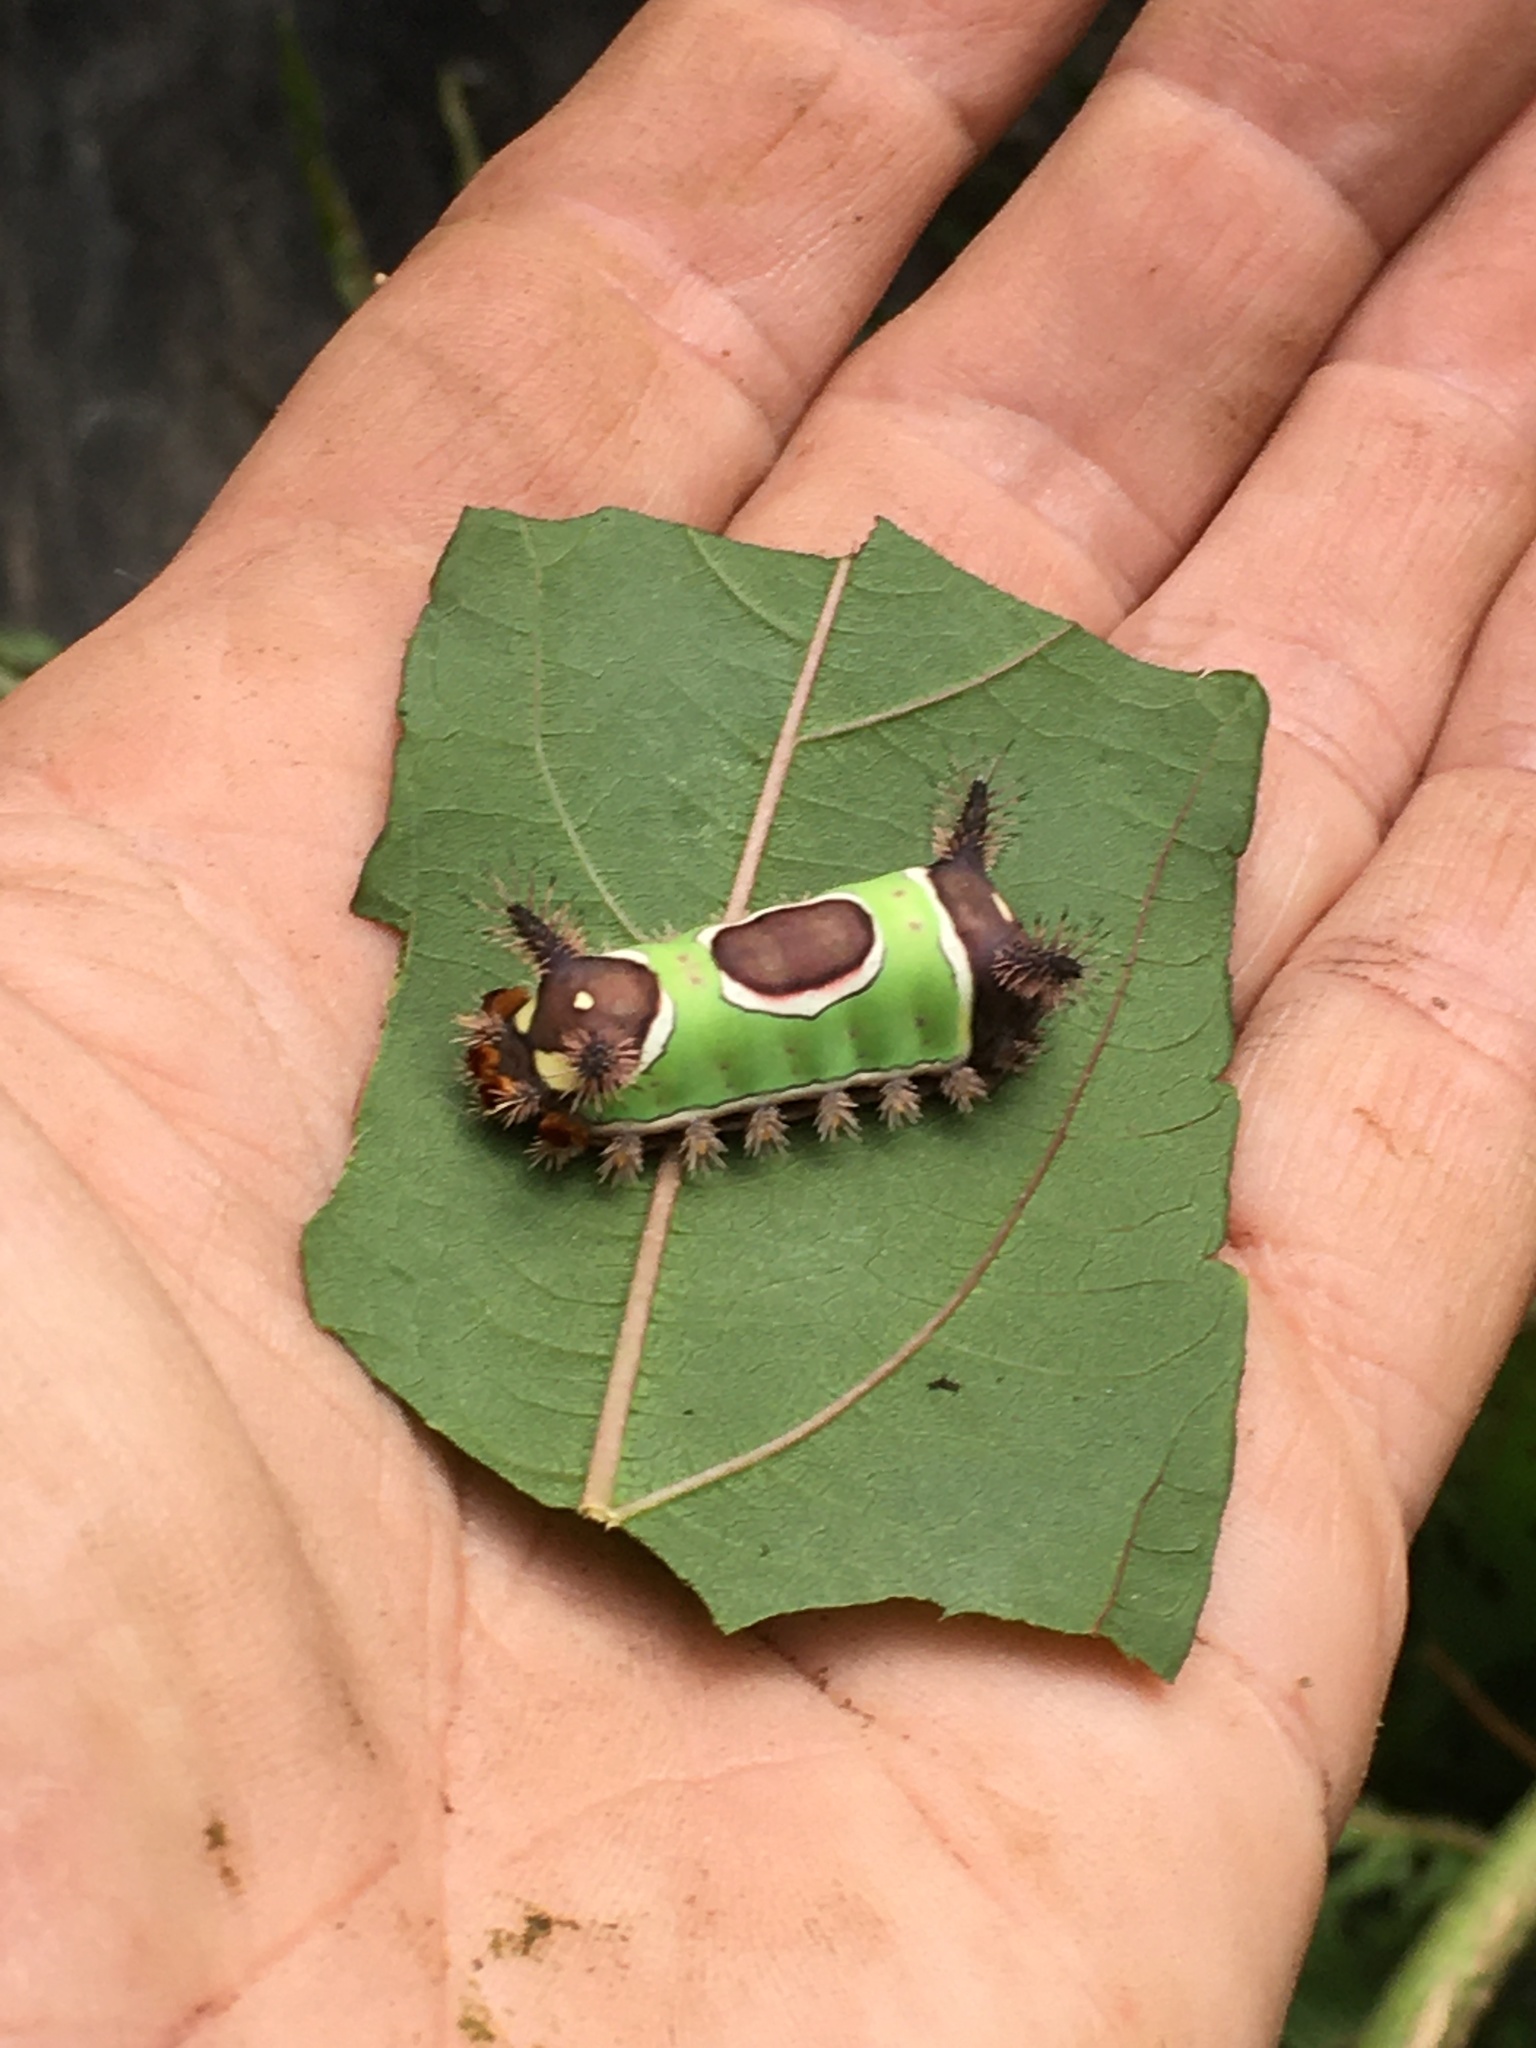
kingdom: Animalia
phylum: Arthropoda
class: Insecta
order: Lepidoptera
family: Limacodidae
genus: Acharia
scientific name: Acharia stimulea
